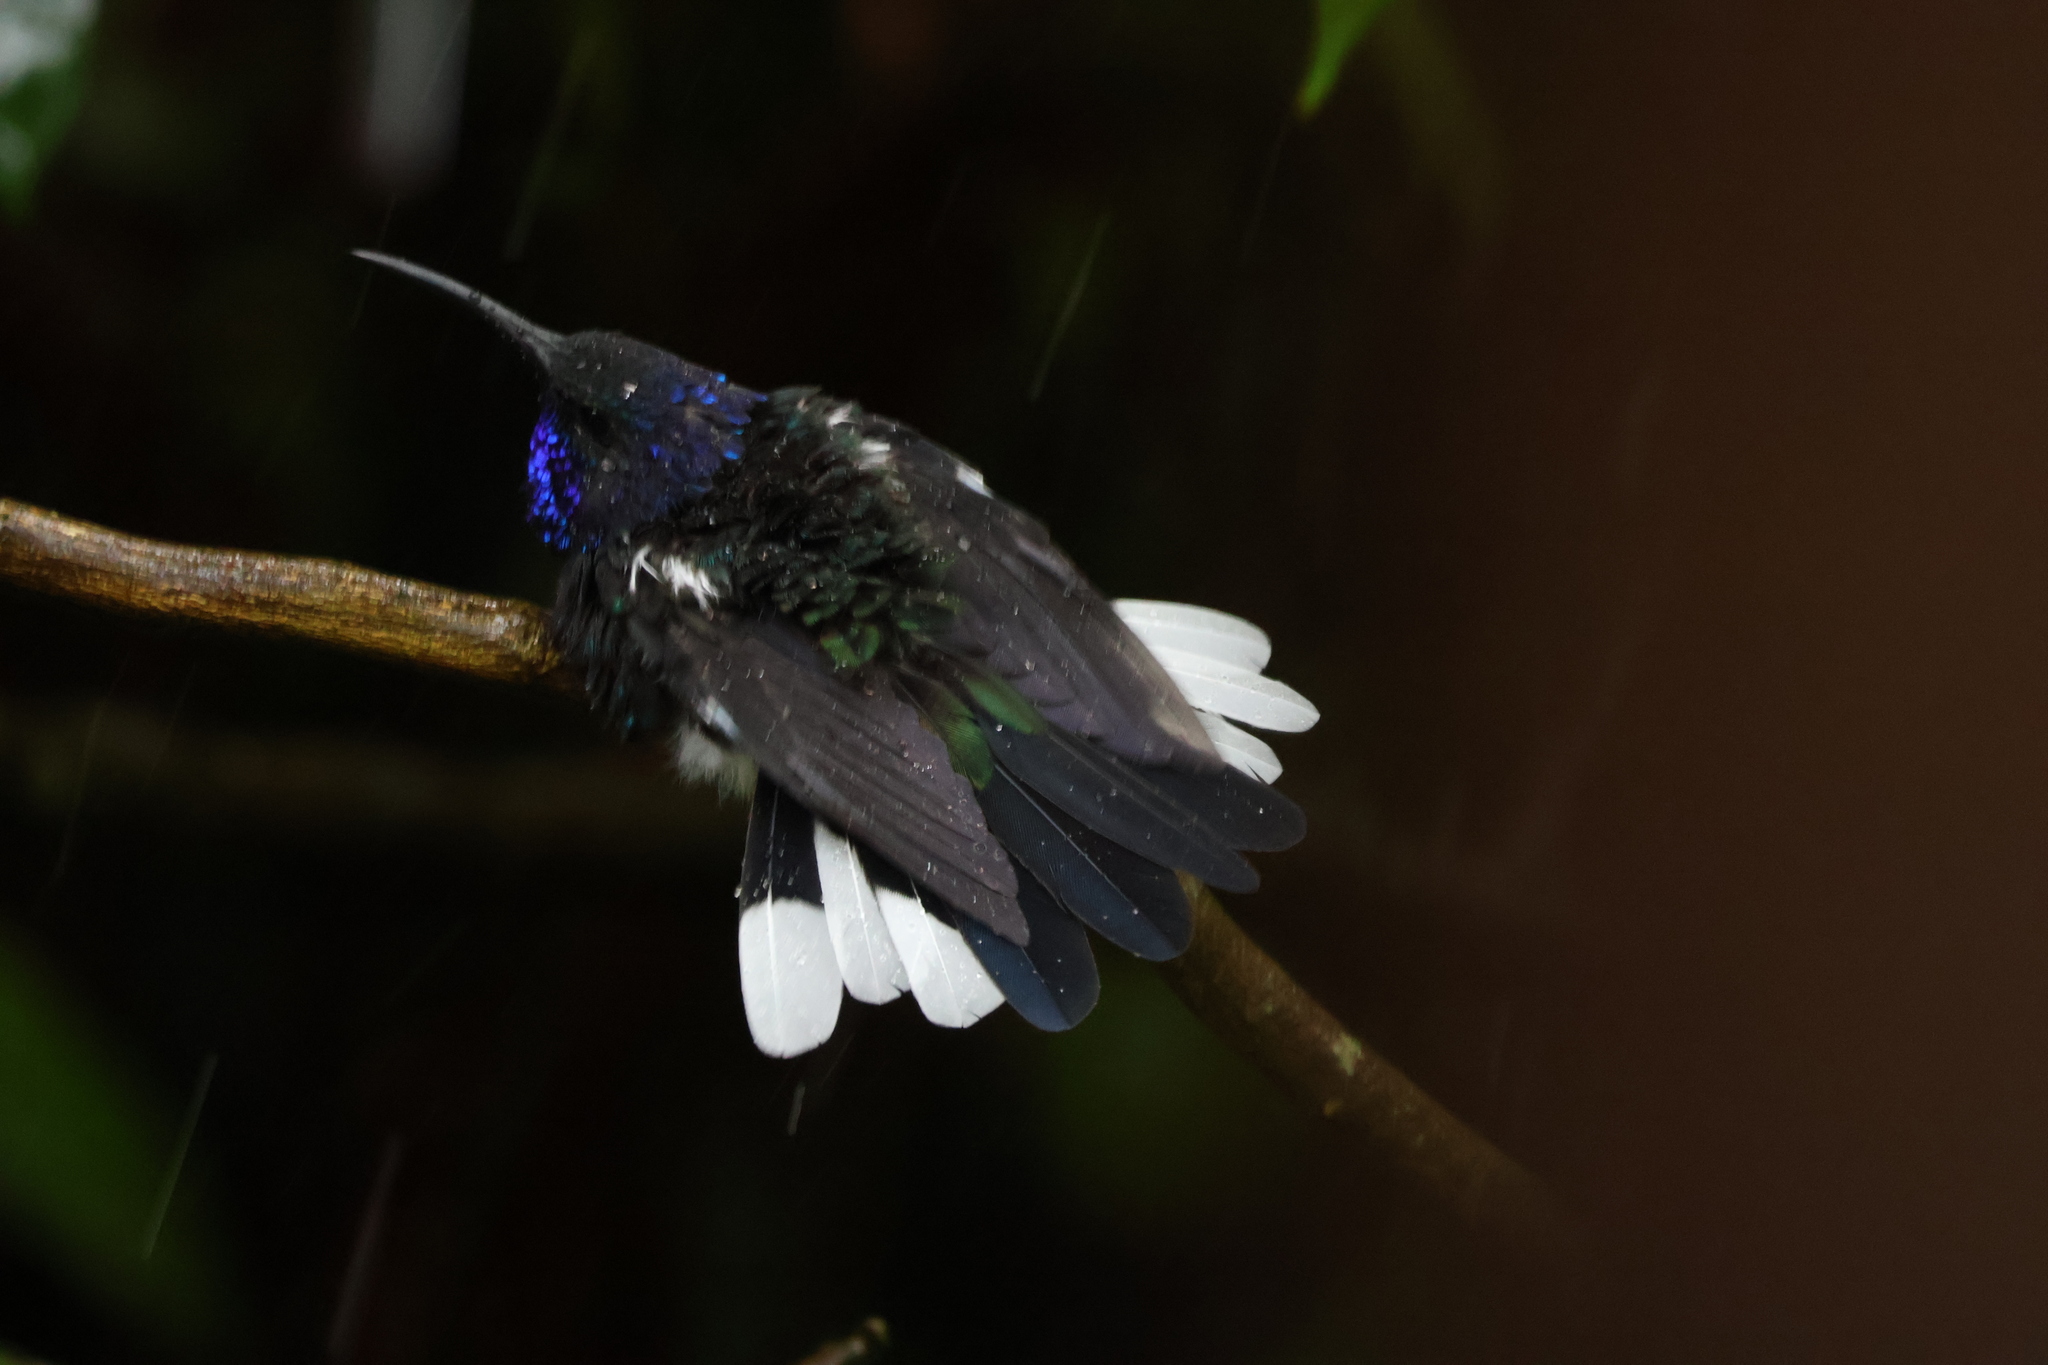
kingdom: Animalia
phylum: Chordata
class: Aves
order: Apodiformes
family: Trochilidae
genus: Campylopterus
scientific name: Campylopterus hemileucurus
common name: Violet sabrewing
